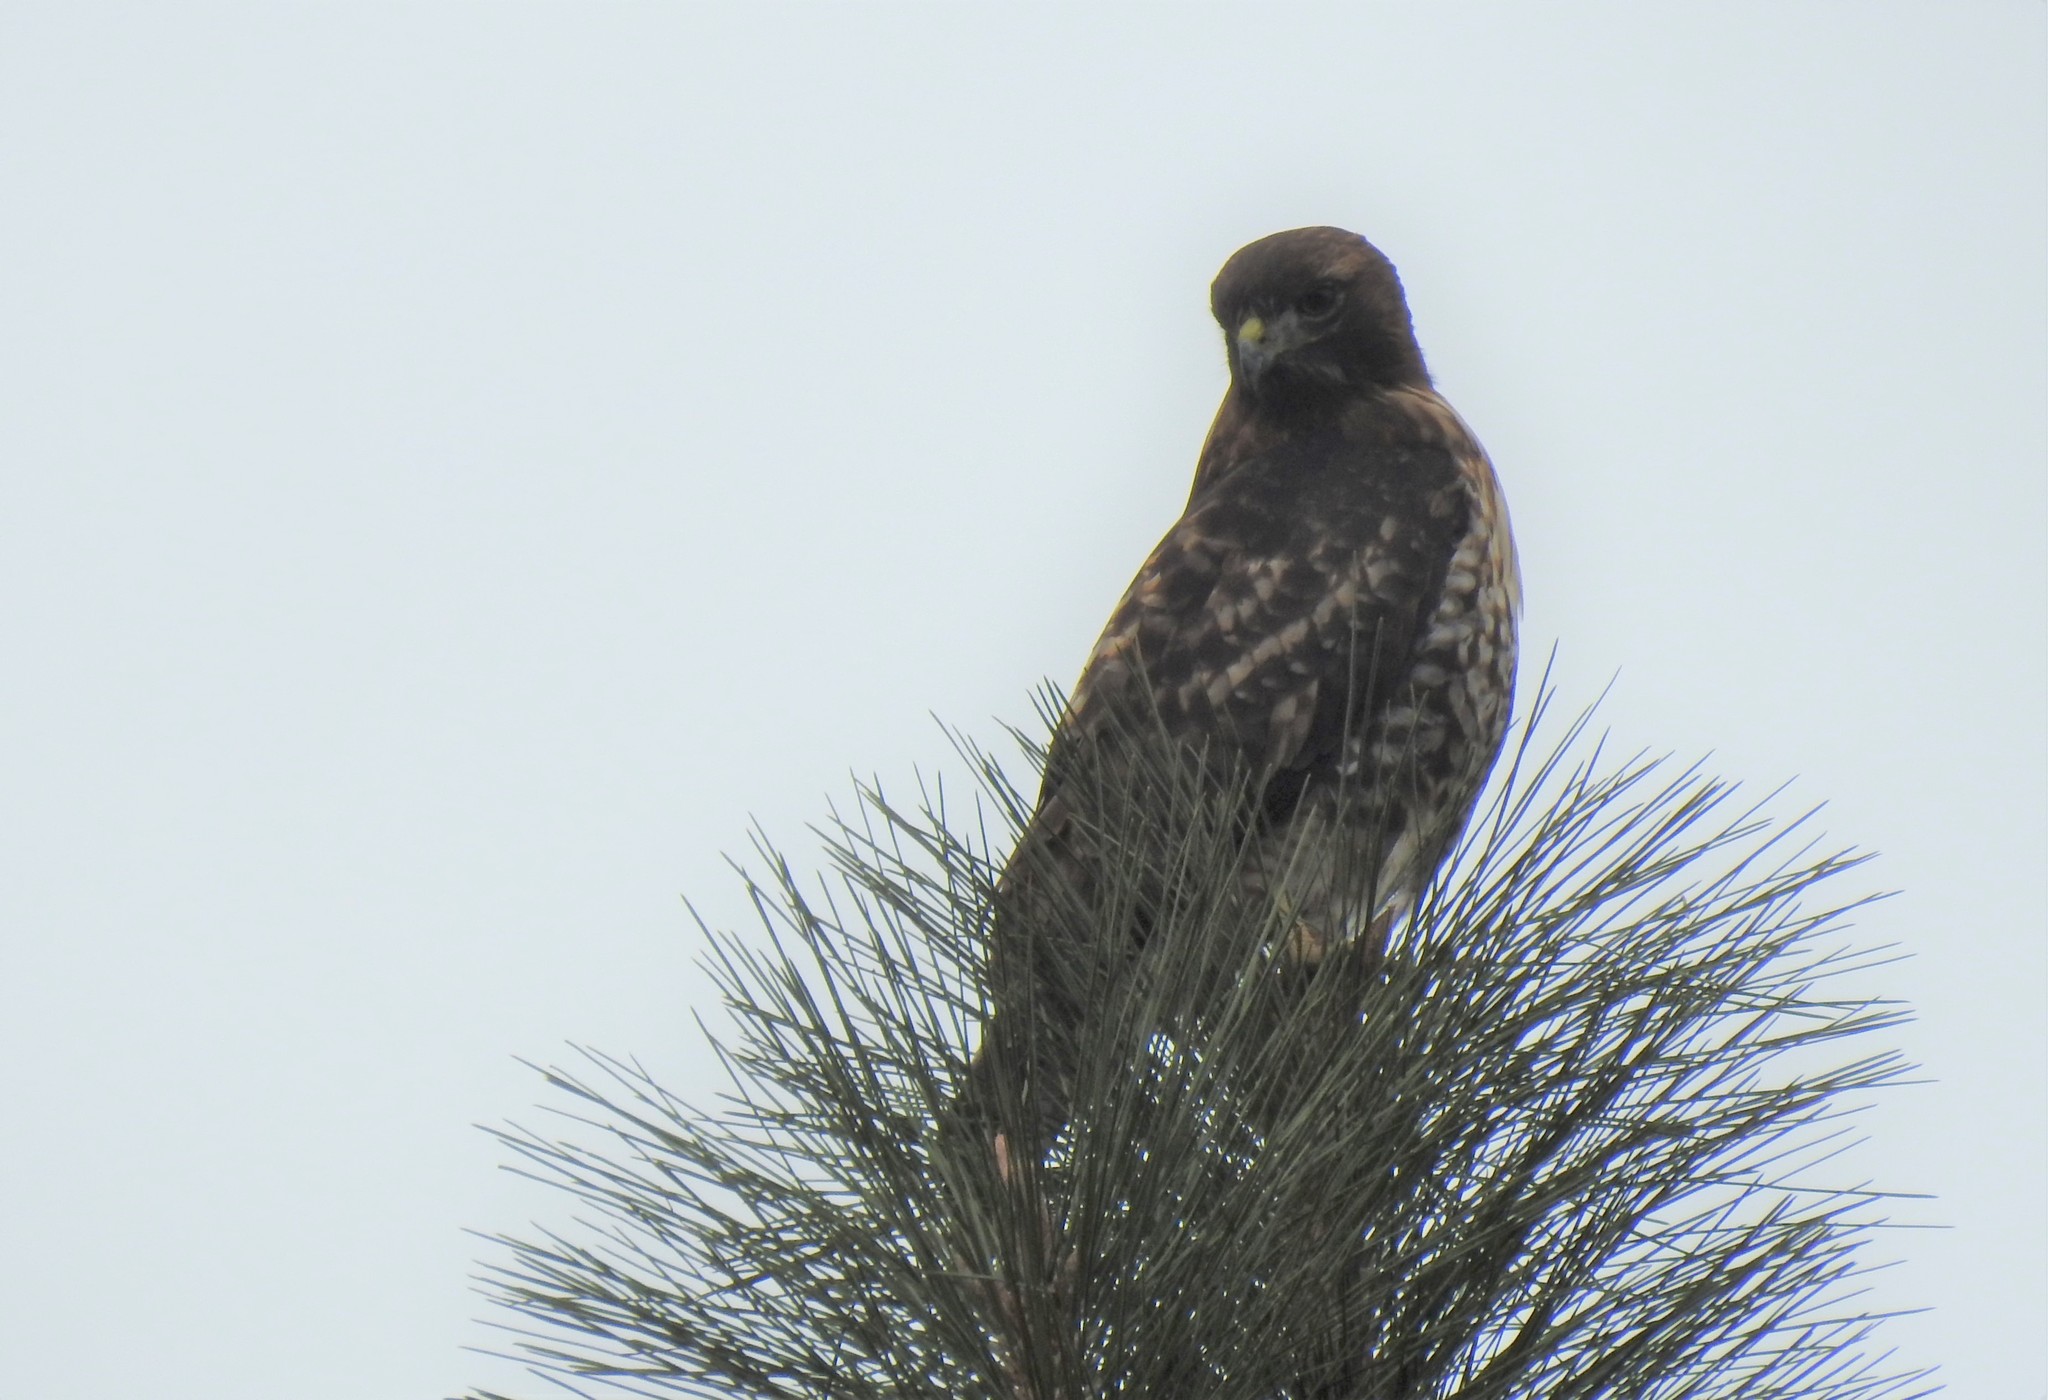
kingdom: Animalia
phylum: Chordata
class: Aves
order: Accipitriformes
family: Accipitridae
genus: Buteo
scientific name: Buteo jamaicensis
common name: Red-tailed hawk
